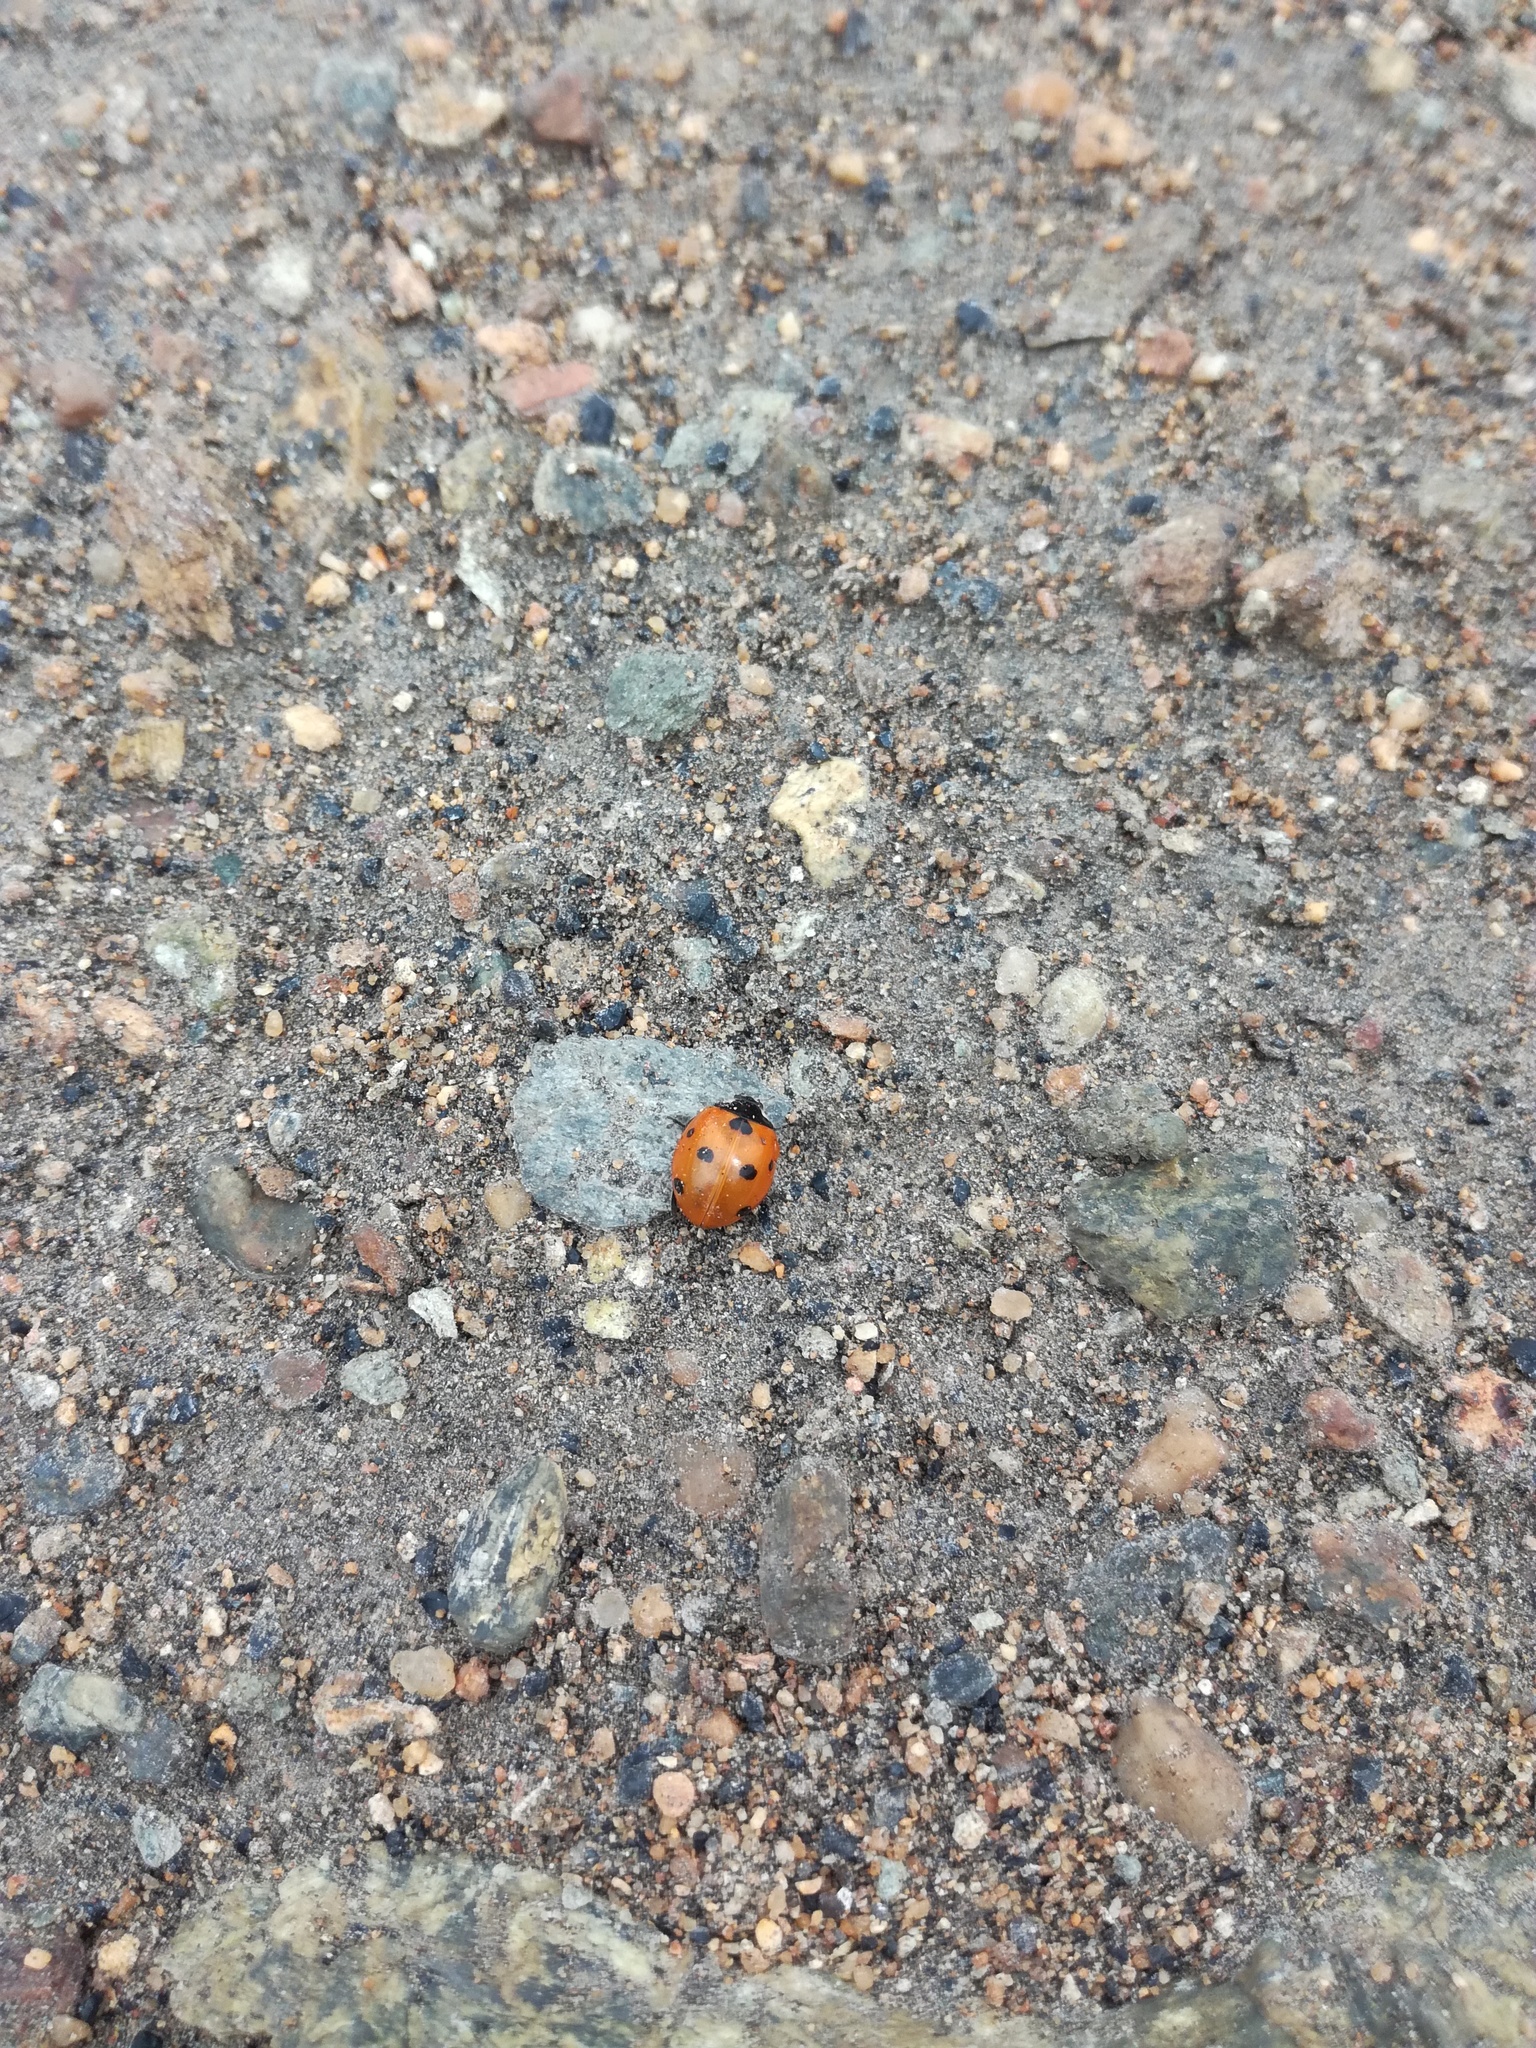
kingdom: Animalia
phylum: Arthropoda
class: Insecta
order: Coleoptera
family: Coccinellidae
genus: Coccinella
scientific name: Coccinella septempunctata
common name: Sevenspotted lady beetle
